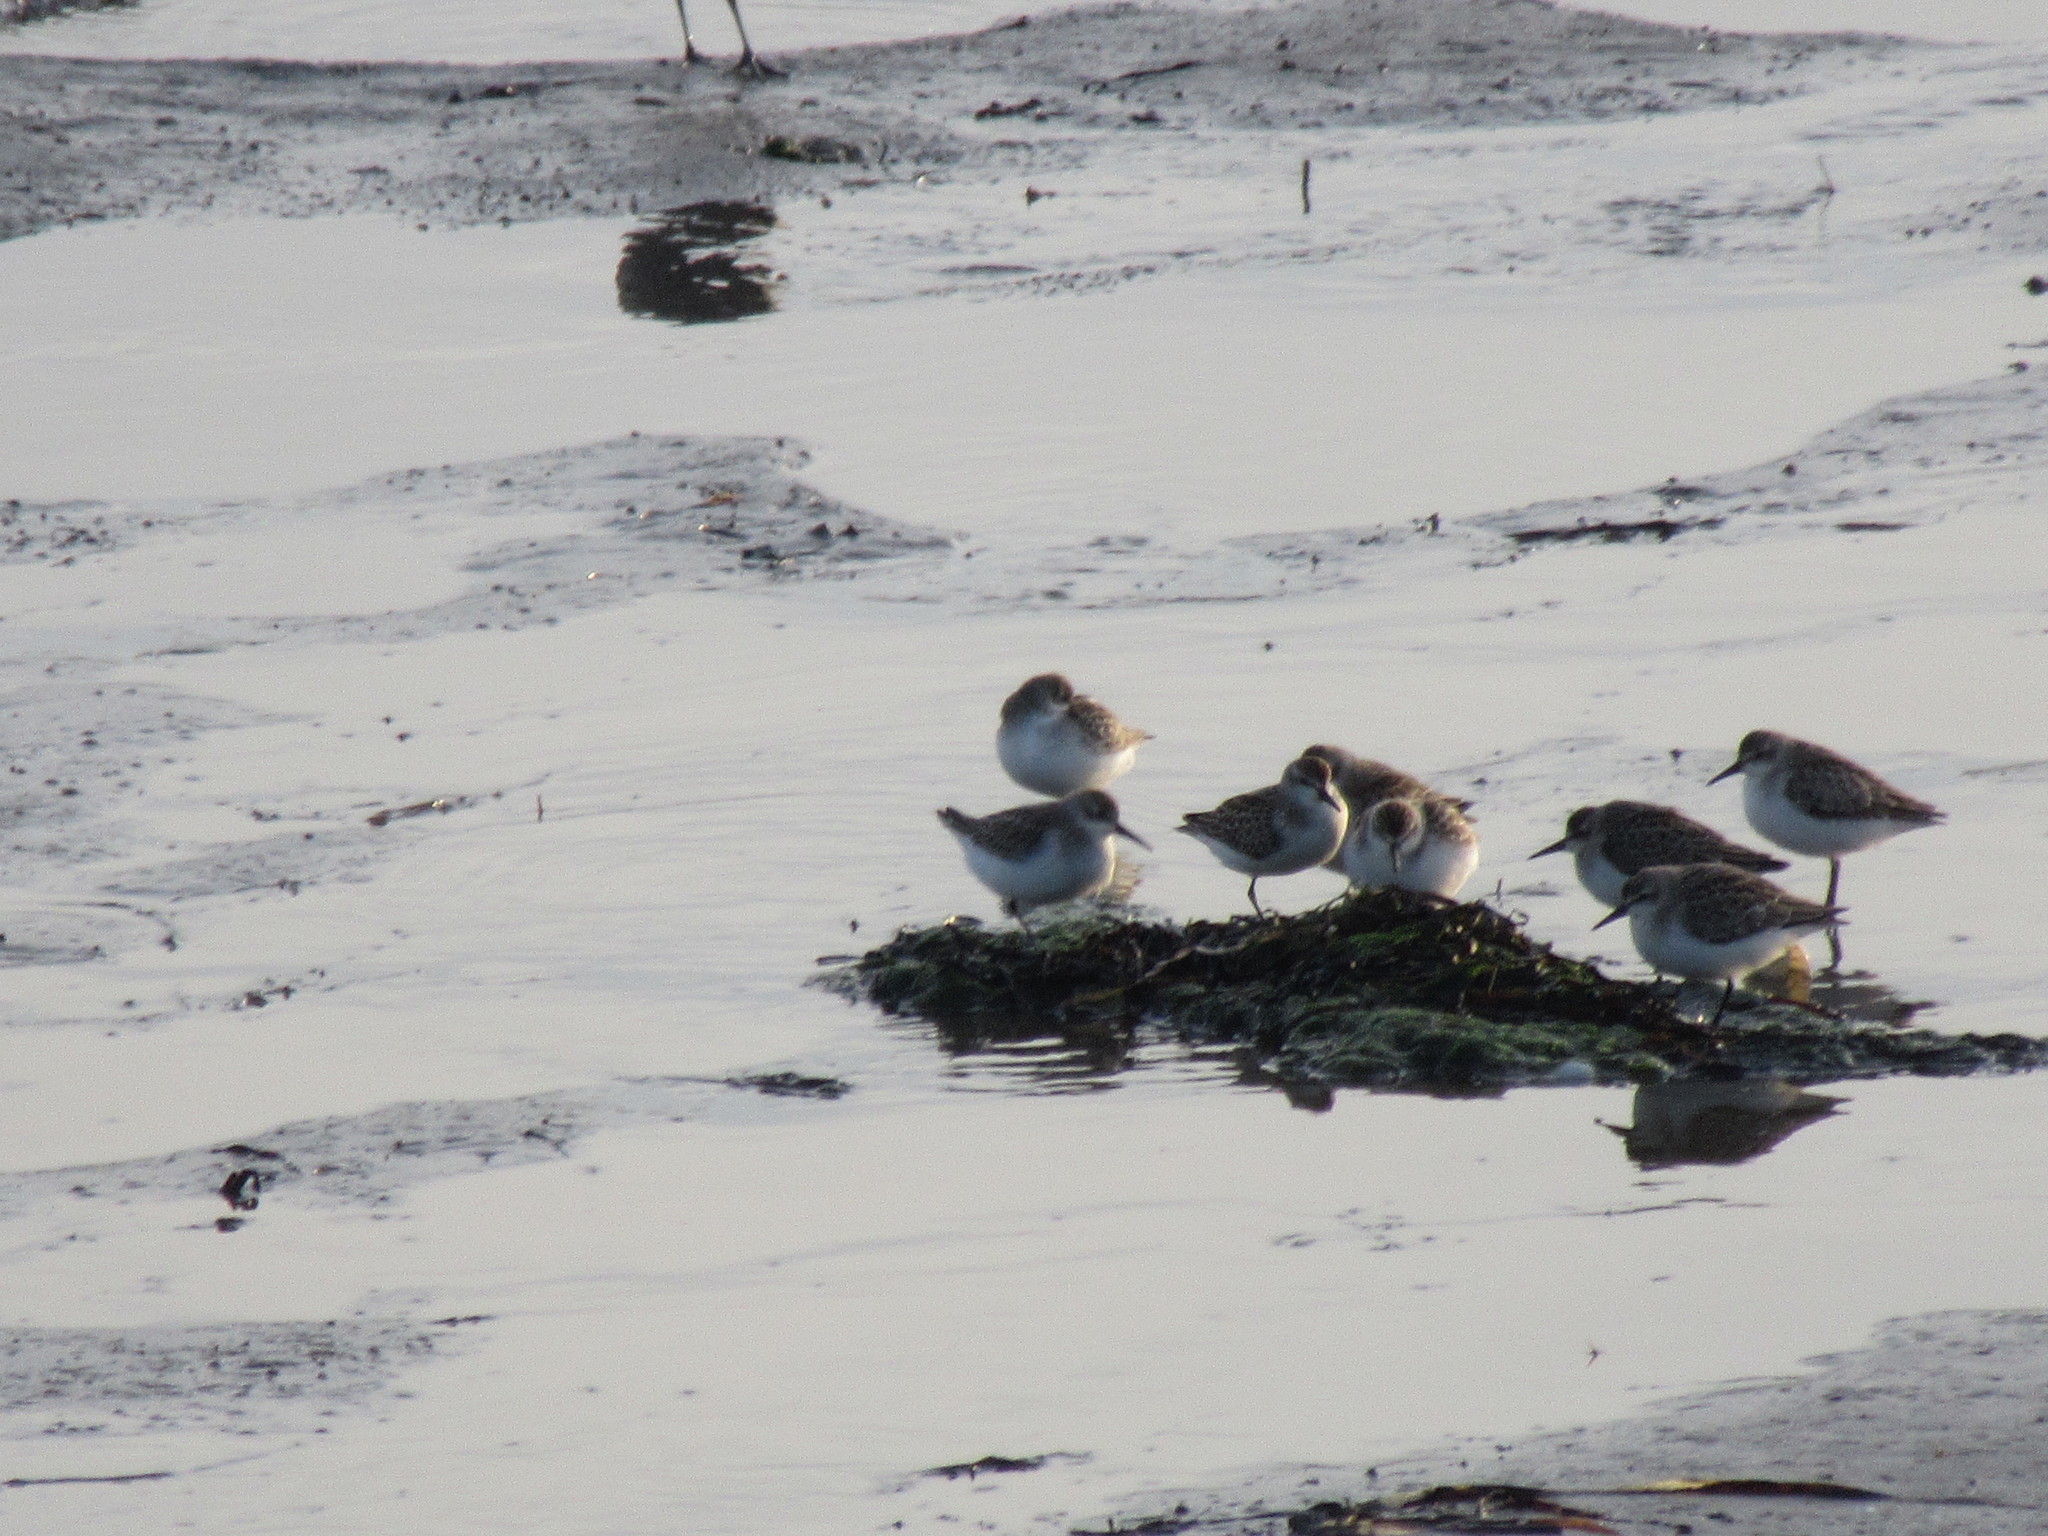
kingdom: Animalia
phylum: Chordata
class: Aves
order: Charadriiformes
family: Scolopacidae
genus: Calidris
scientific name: Calidris pusilla
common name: Semipalmated sandpiper
